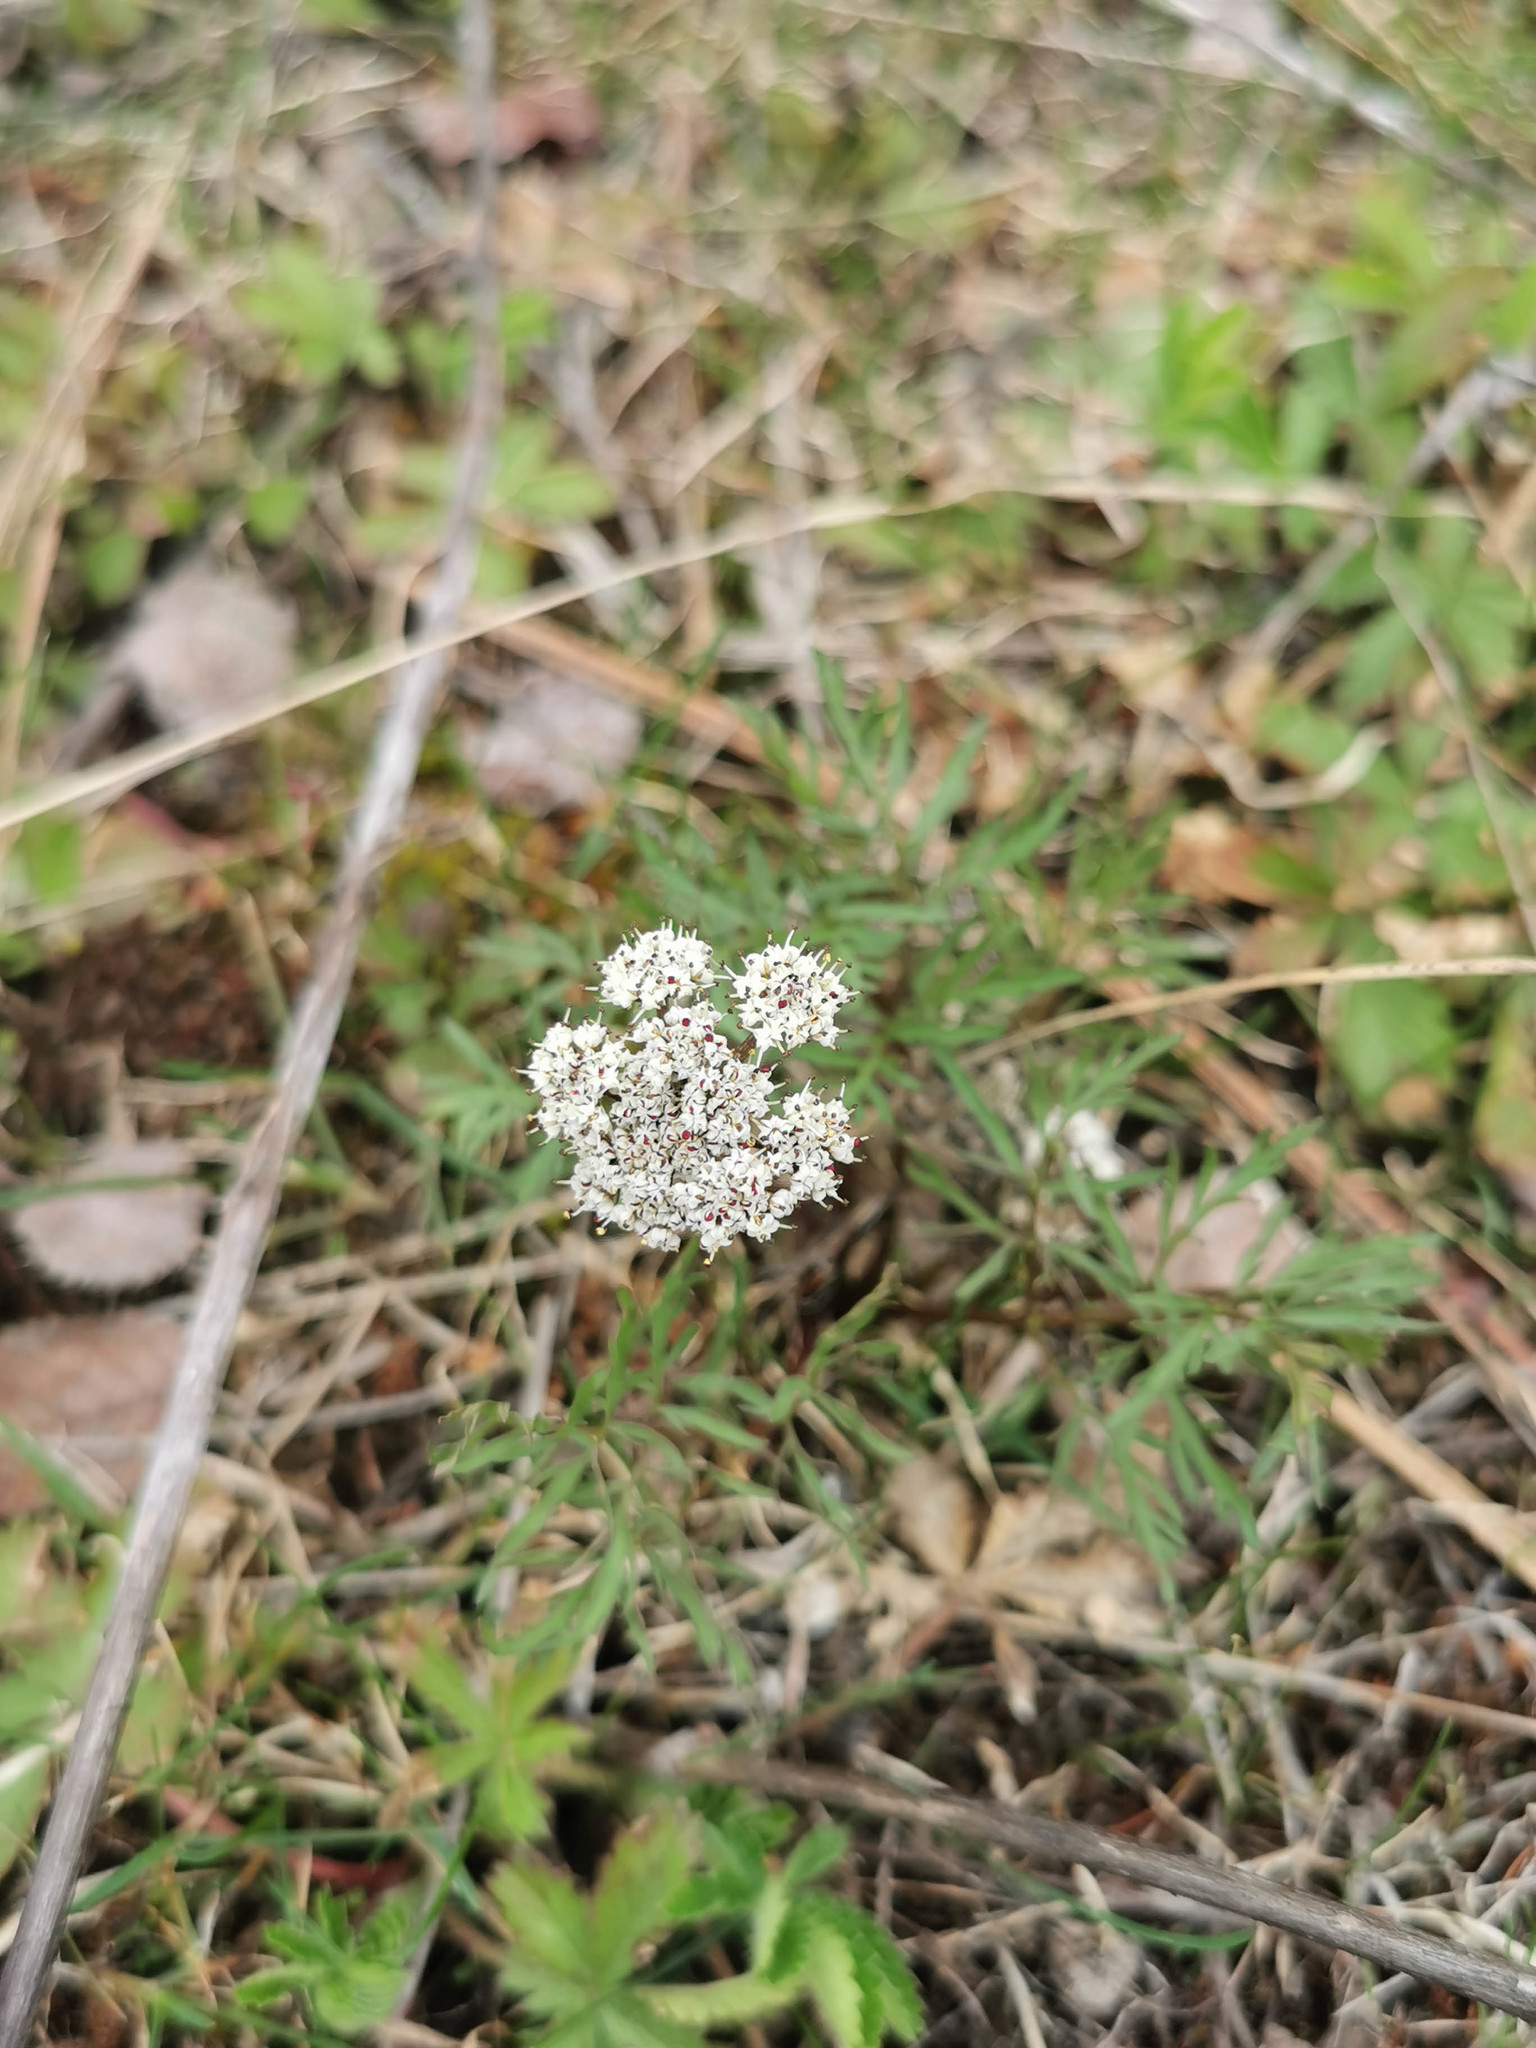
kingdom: Plantae
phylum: Tracheophyta
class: Magnoliopsida
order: Apiales
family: Apiaceae
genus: Lomatium
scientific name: Lomatium geyeri
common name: Geyer's biscuitroot
